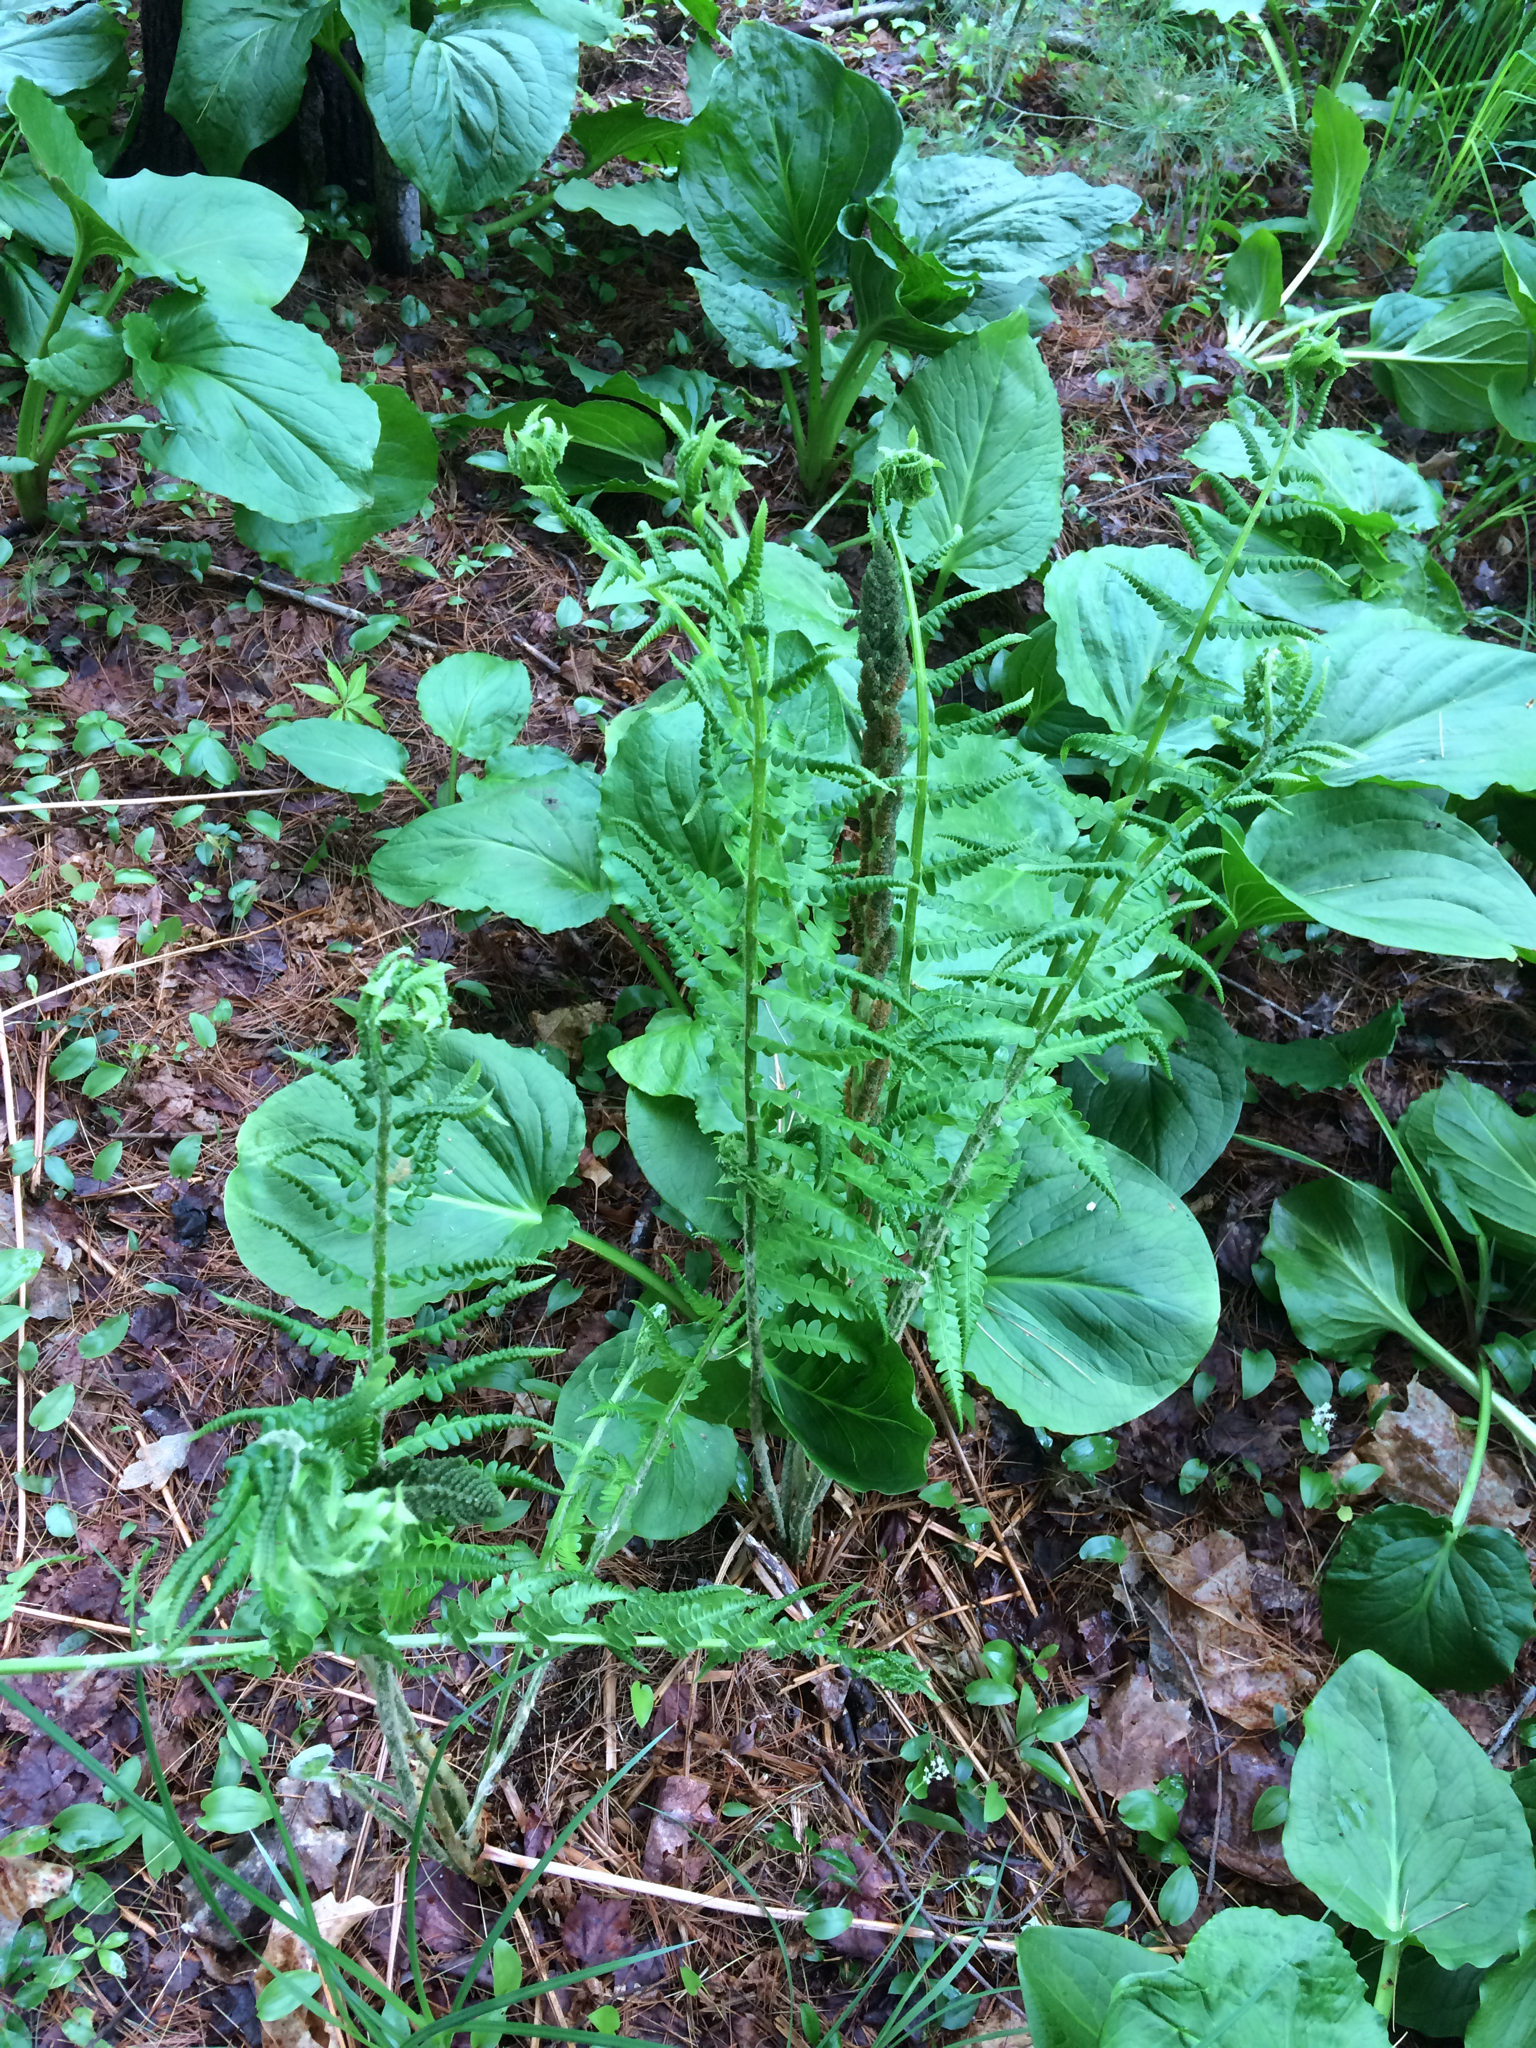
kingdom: Plantae
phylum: Tracheophyta
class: Polypodiopsida
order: Osmundales
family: Osmundaceae
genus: Osmundastrum
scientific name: Osmundastrum cinnamomeum
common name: Cinnamon fern
